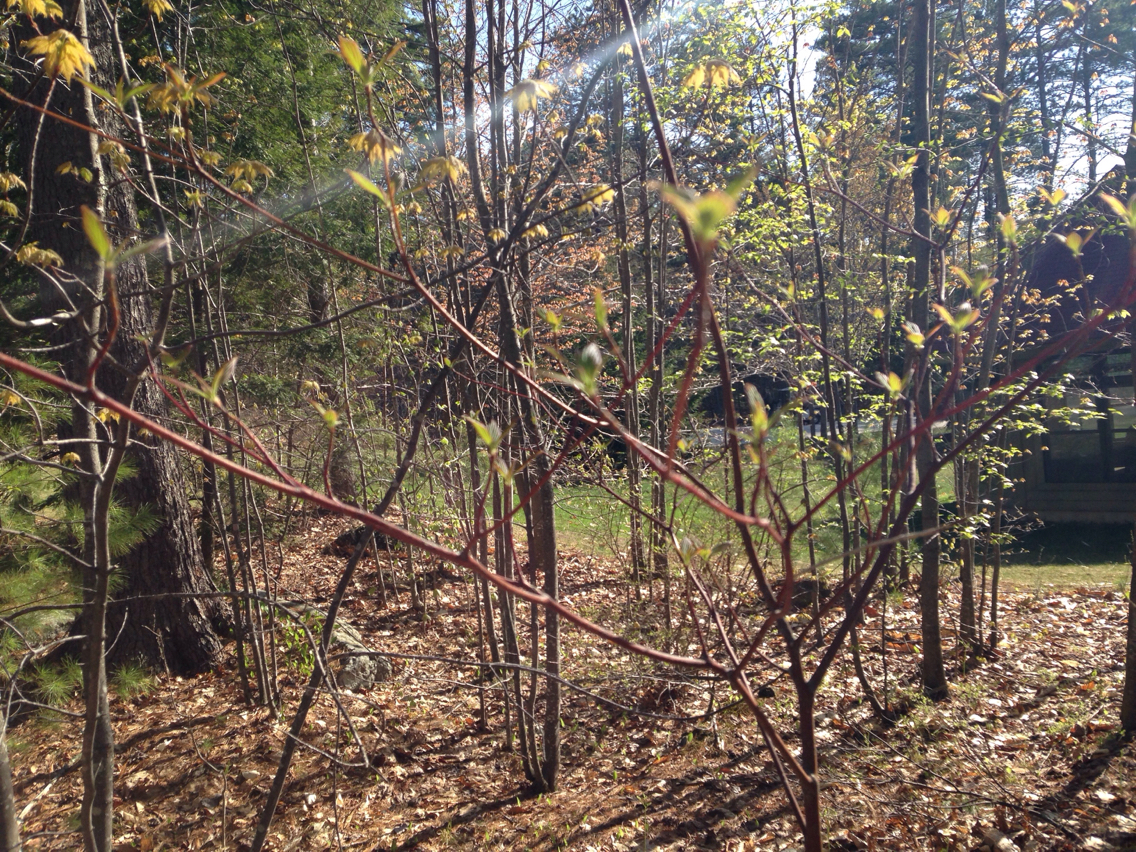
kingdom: Plantae
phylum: Tracheophyta
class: Magnoliopsida
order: Cornales
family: Cornaceae
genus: Cornus
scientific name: Cornus sericea
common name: Red-osier dogwood
